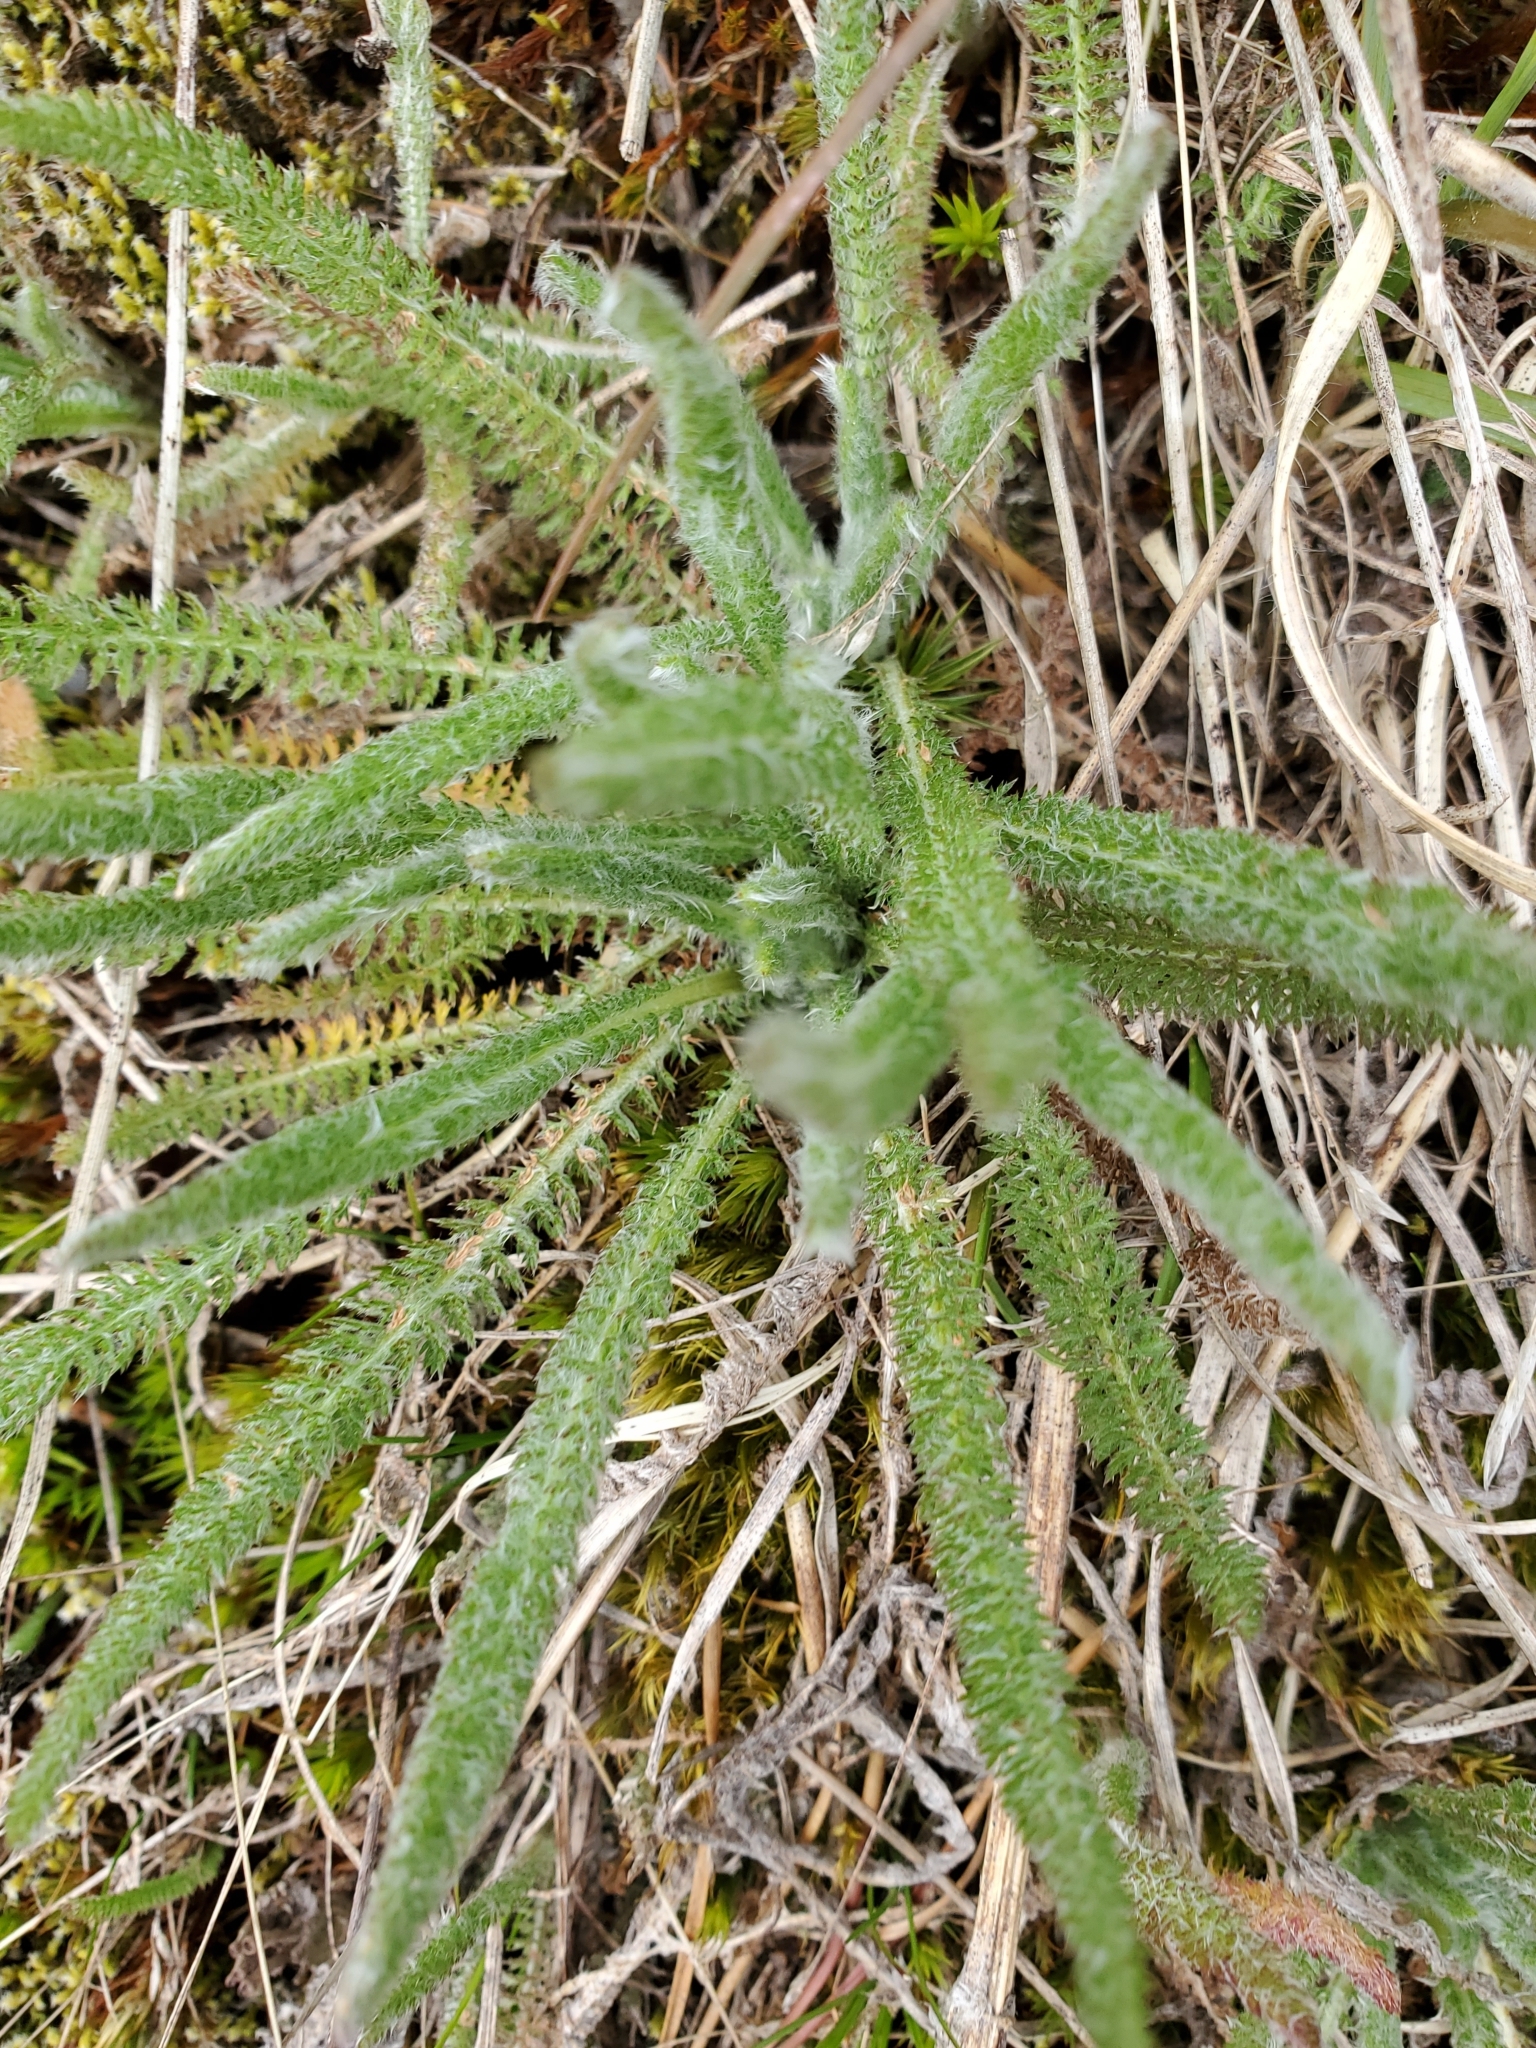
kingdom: Plantae
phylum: Tracheophyta
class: Magnoliopsida
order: Asterales
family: Asteraceae
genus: Achillea
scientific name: Achillea millefolium
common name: Yarrow
